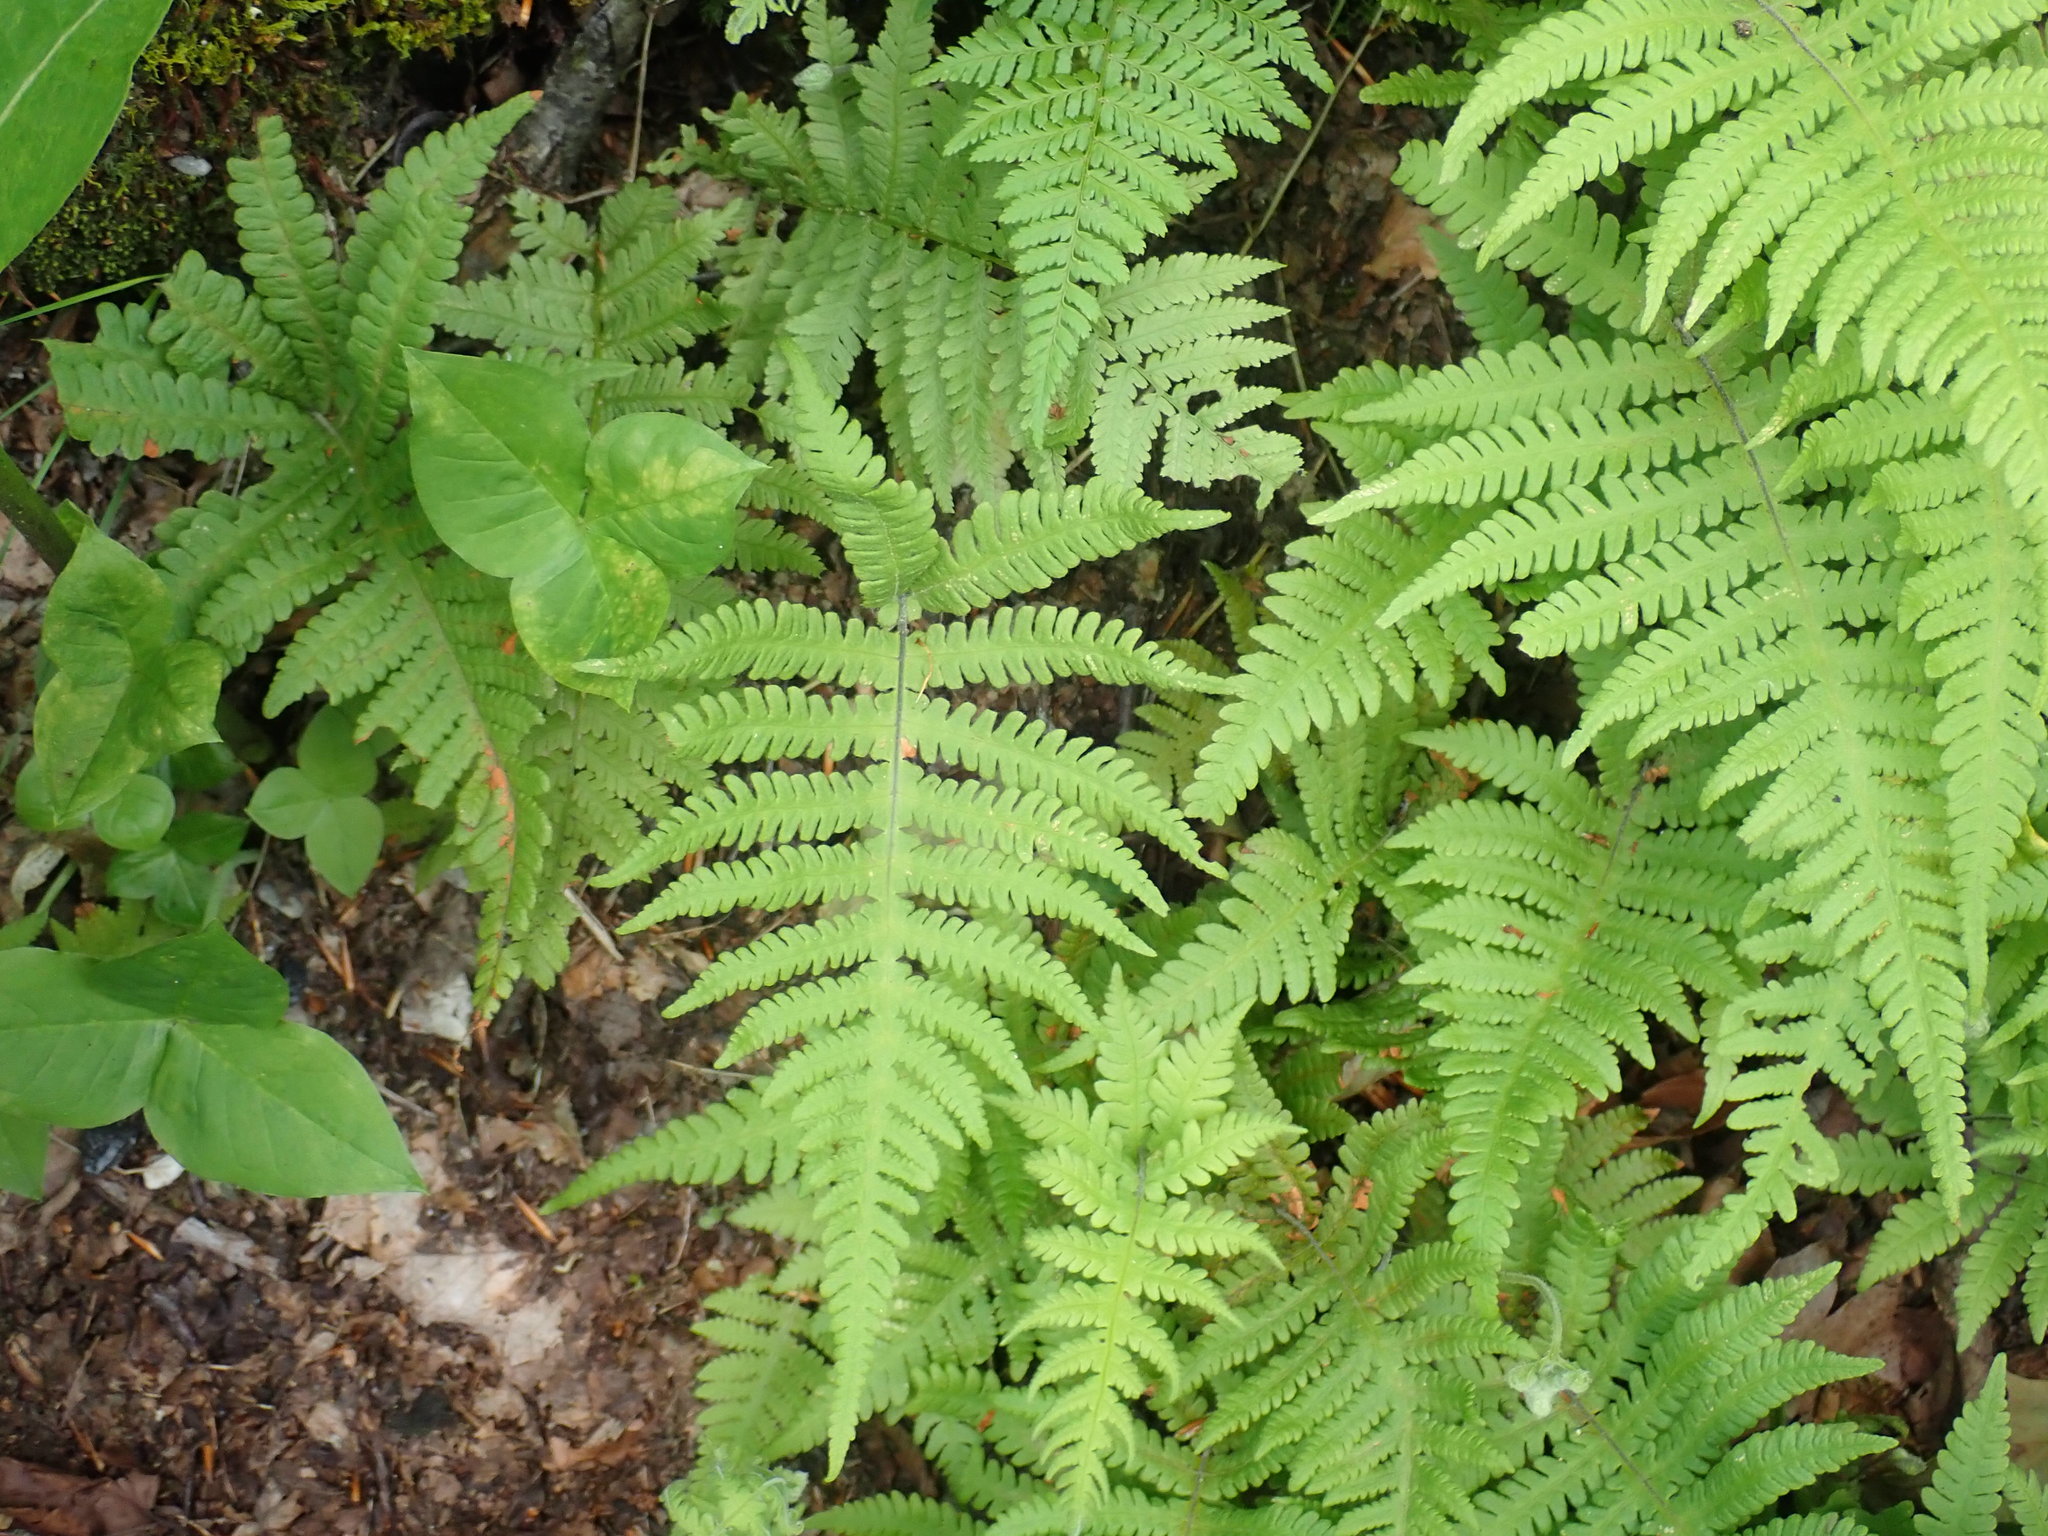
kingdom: Plantae
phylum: Tracheophyta
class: Polypodiopsida
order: Polypodiales
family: Thelypteridaceae
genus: Phegopteris
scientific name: Phegopteris connectilis
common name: Beech fern
